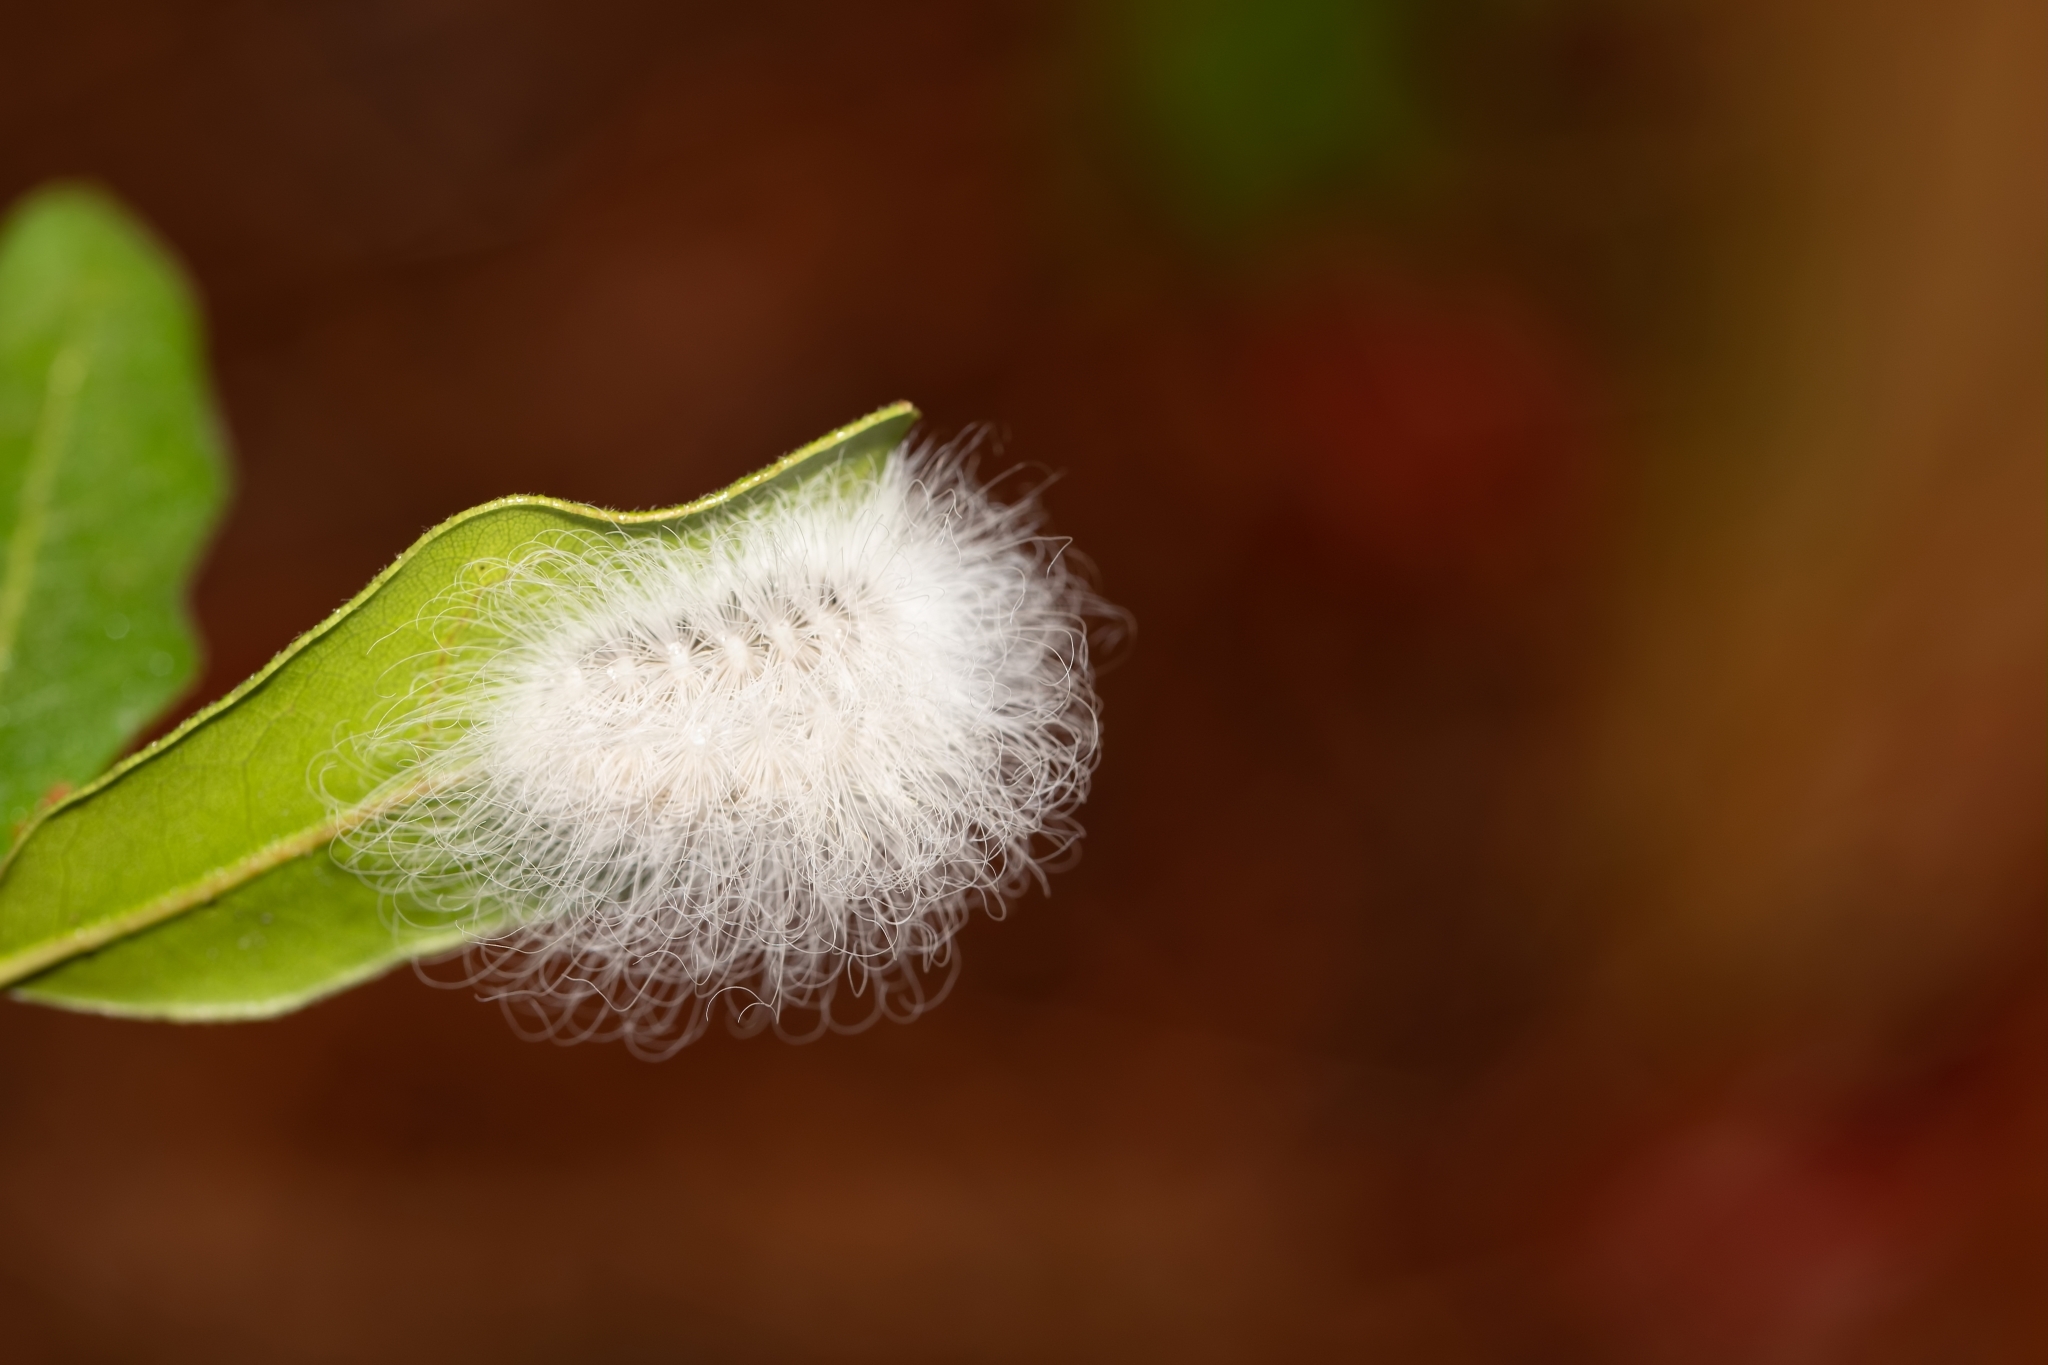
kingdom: Animalia
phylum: Arthropoda
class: Insecta
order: Lepidoptera
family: Megalopygidae
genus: Megalopyge
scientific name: Megalopyge
